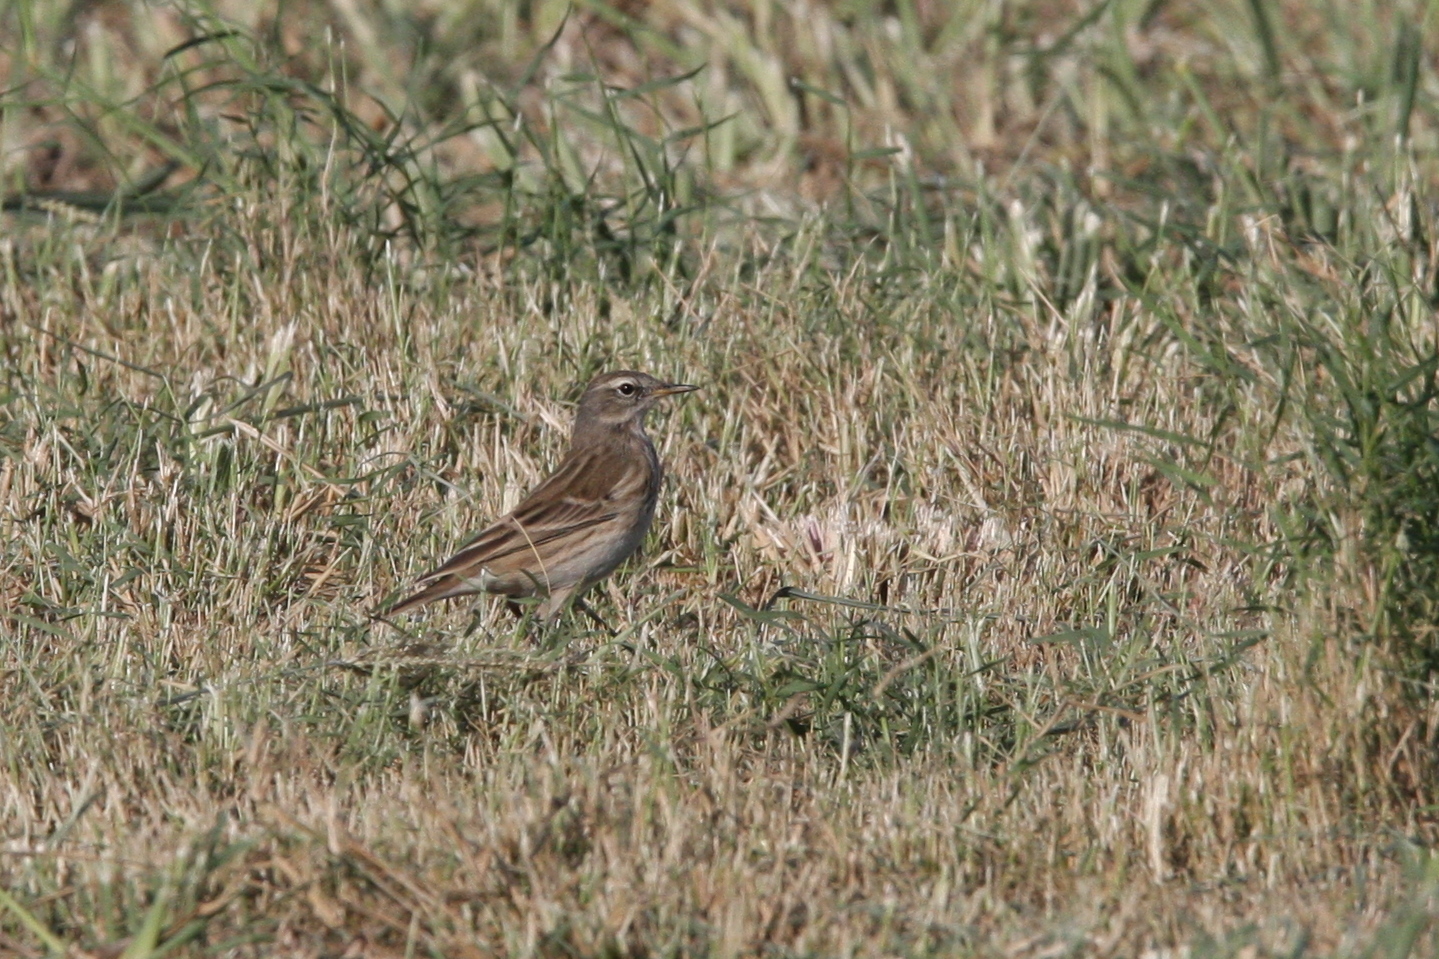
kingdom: Animalia
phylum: Chordata
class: Aves
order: Passeriformes
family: Motacillidae
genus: Anthus
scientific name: Anthus spinoletta
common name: Water pipit
